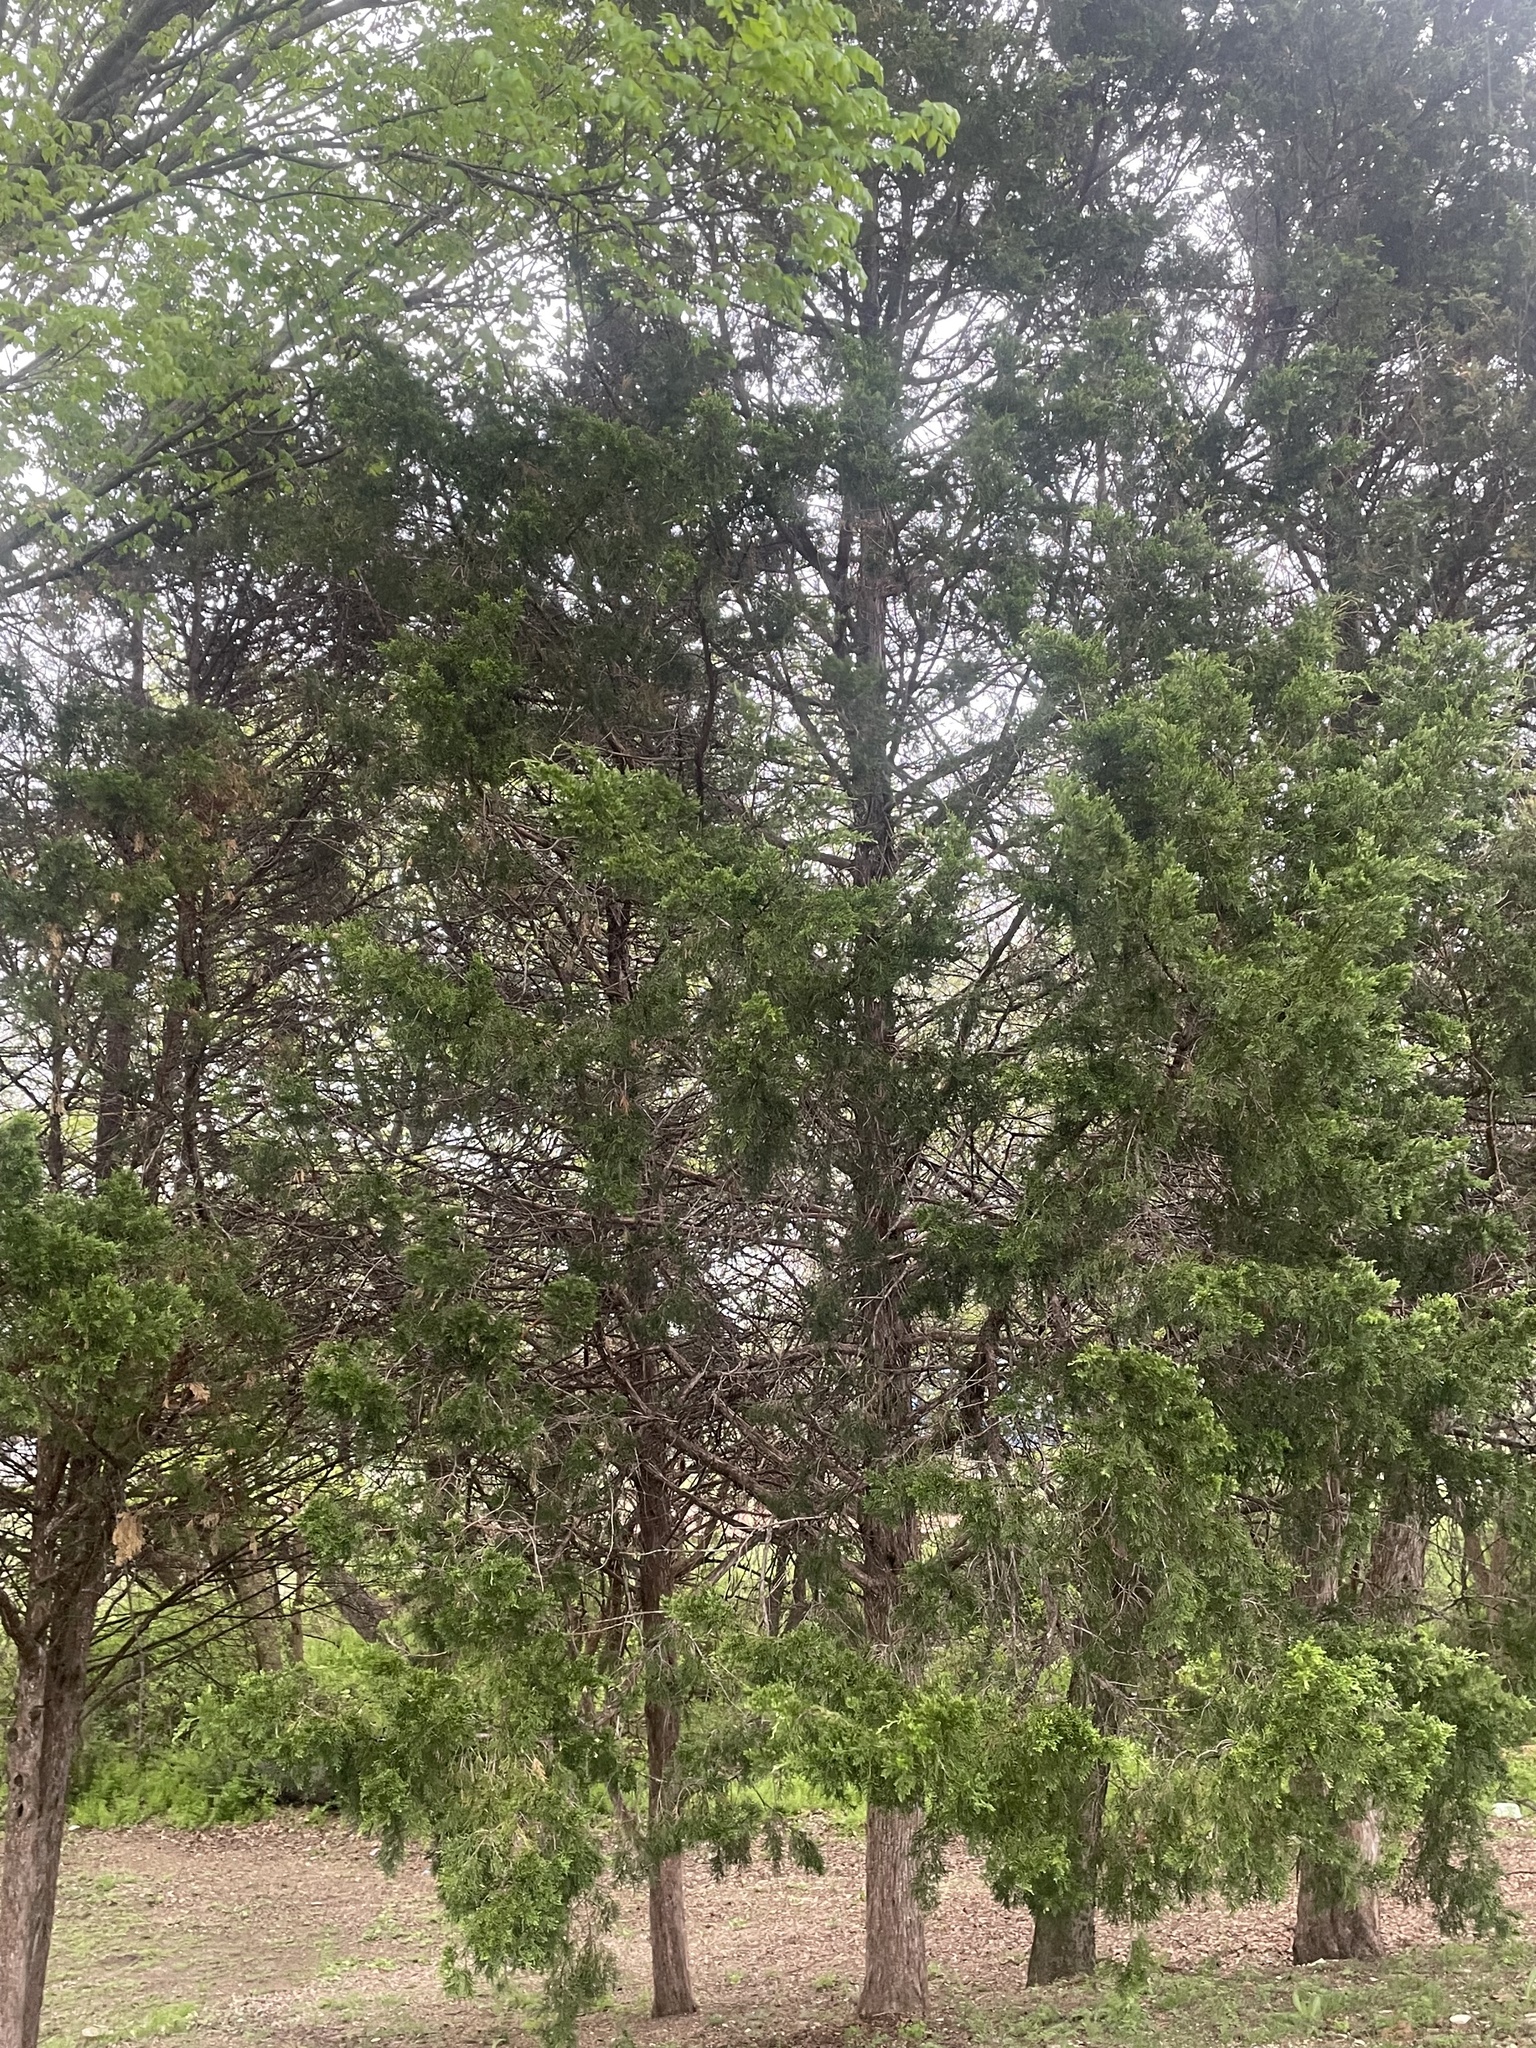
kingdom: Plantae
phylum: Tracheophyta
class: Pinopsida
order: Pinales
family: Cupressaceae
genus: Juniperus
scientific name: Juniperus virginiana
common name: Red juniper
